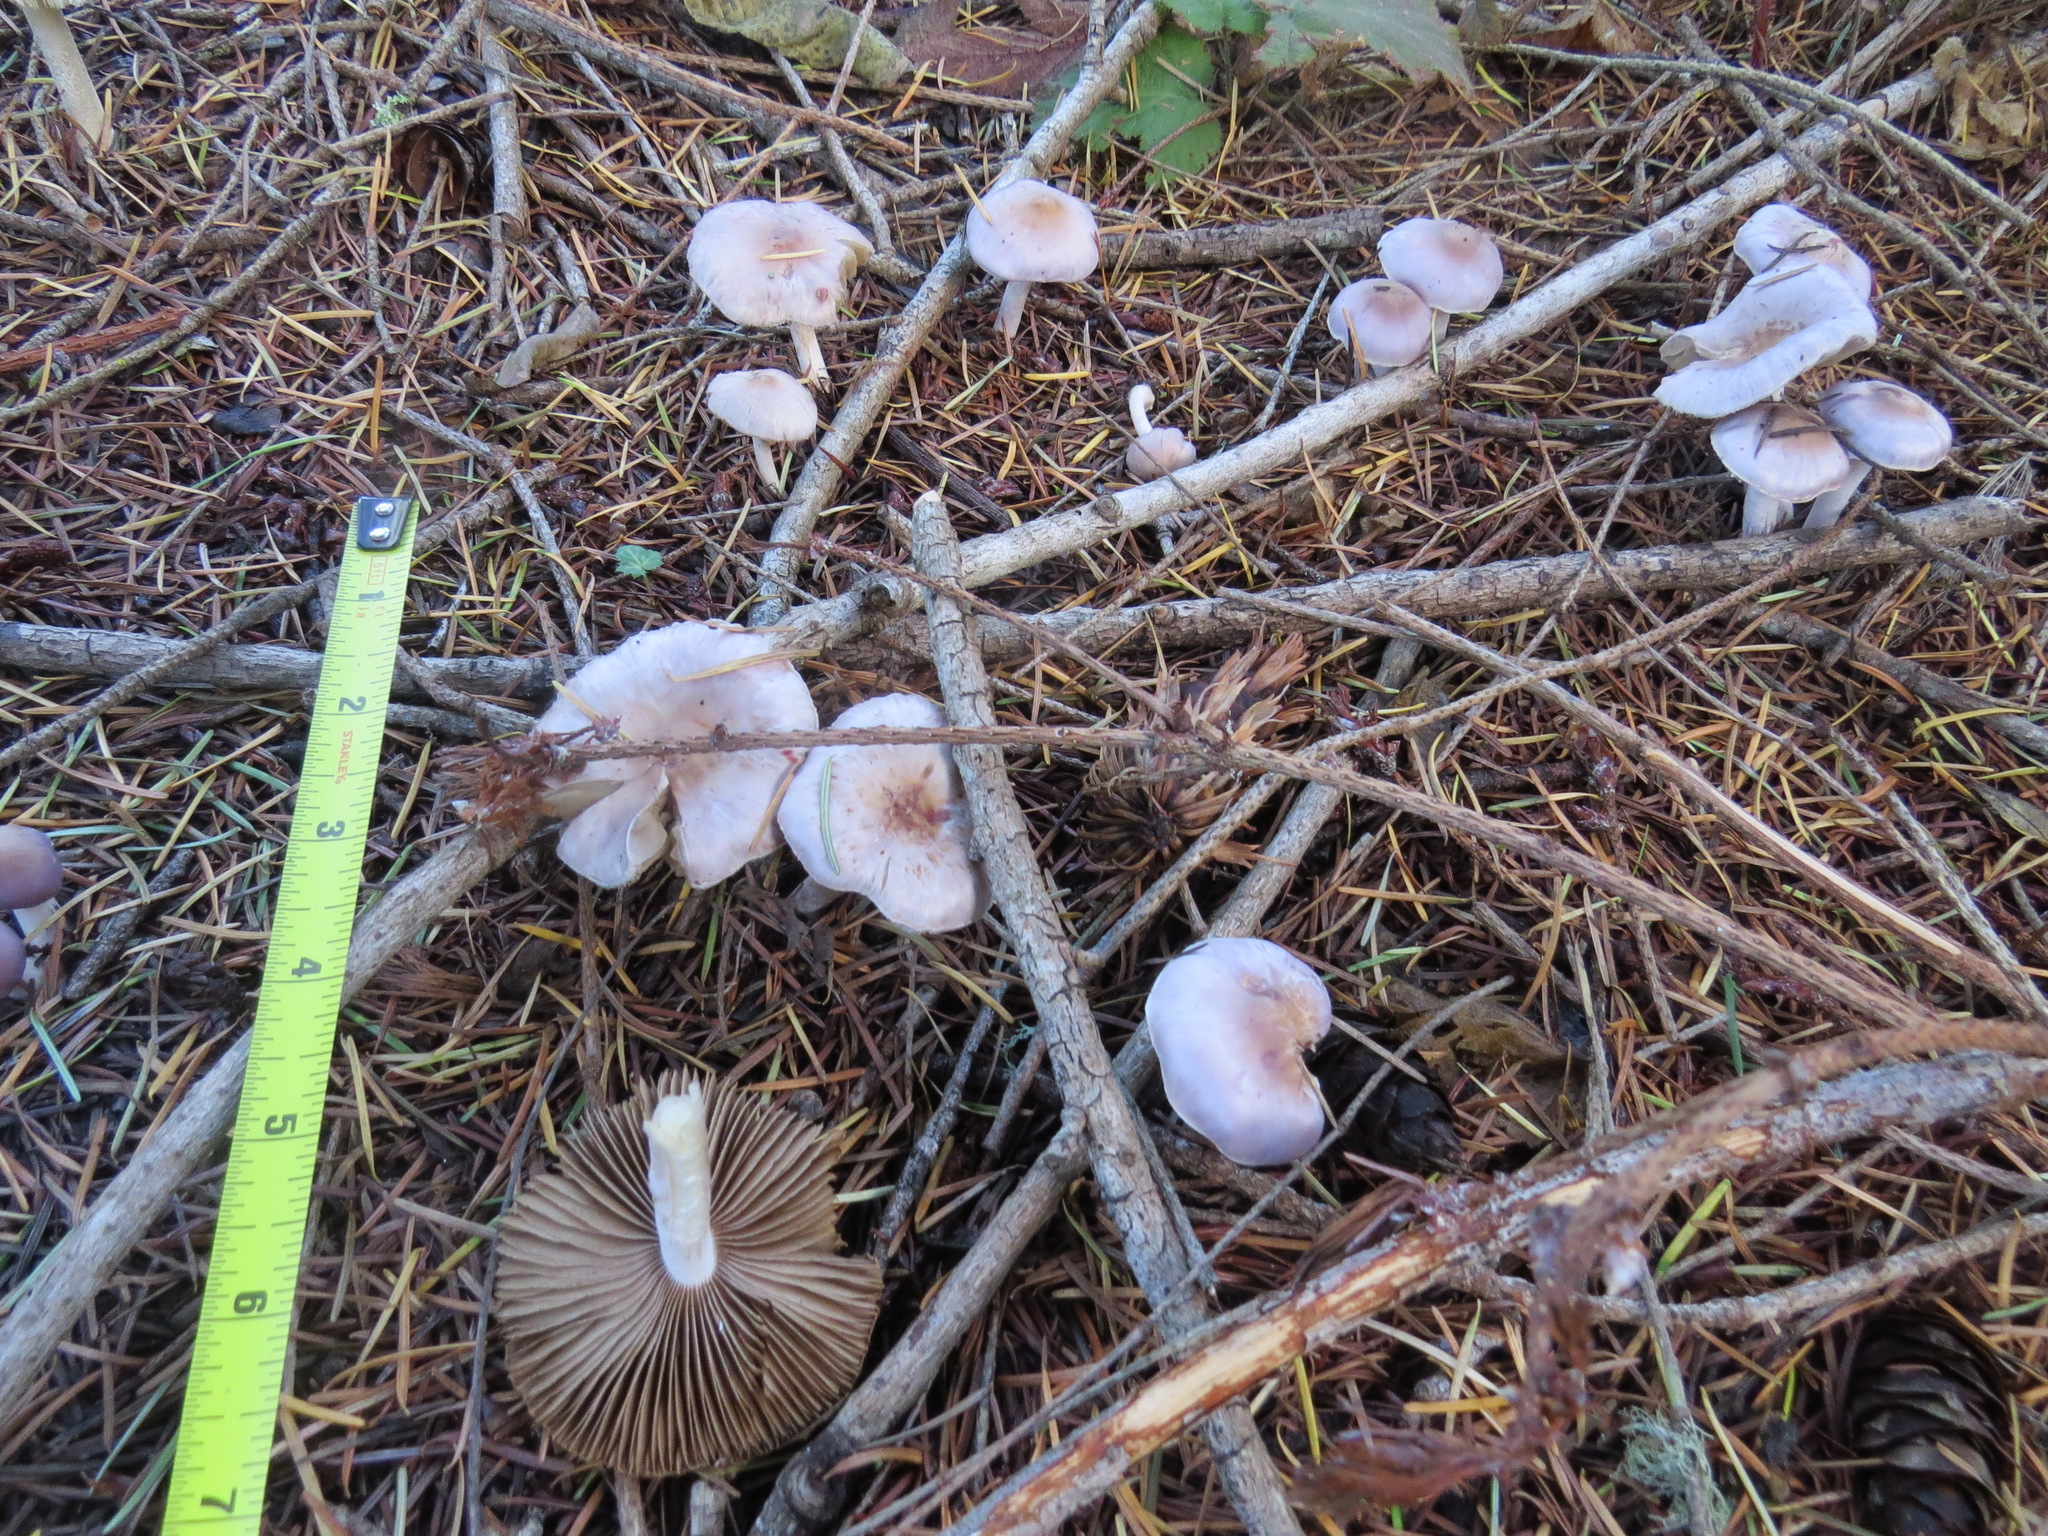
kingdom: Fungi
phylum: Basidiomycota
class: Agaricomycetes
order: Agaricales
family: Inocybaceae
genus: Inocybe
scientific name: Inocybe pallidicremea
